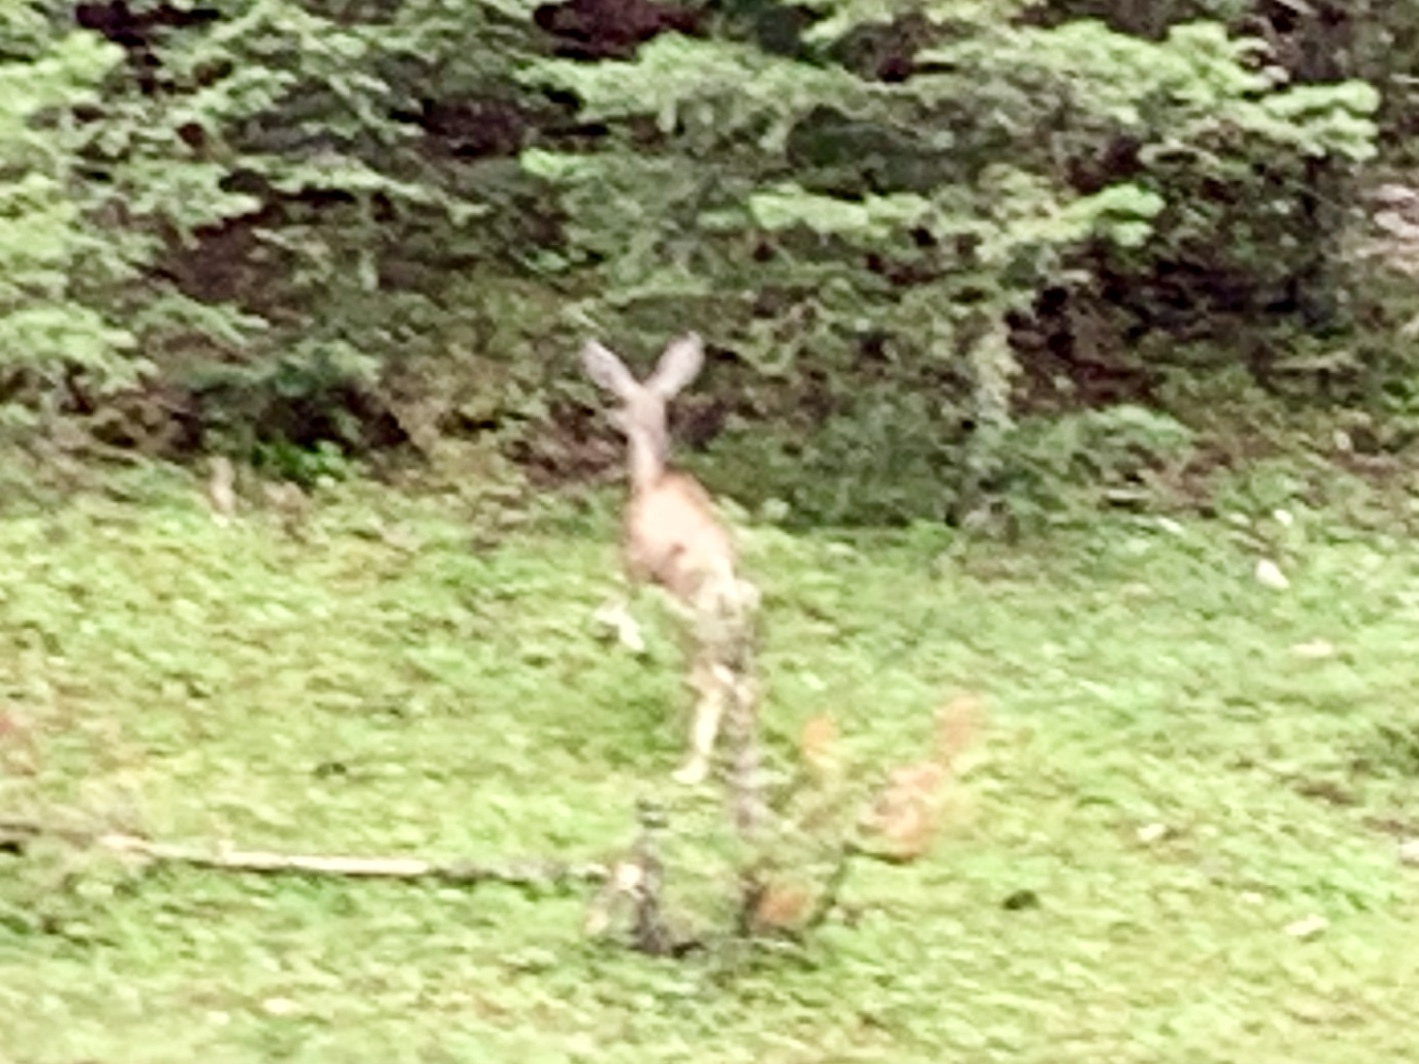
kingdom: Animalia
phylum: Chordata
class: Mammalia
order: Artiodactyla
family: Cervidae
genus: Odocoileus
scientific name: Odocoileus hemionus
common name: Mule deer
